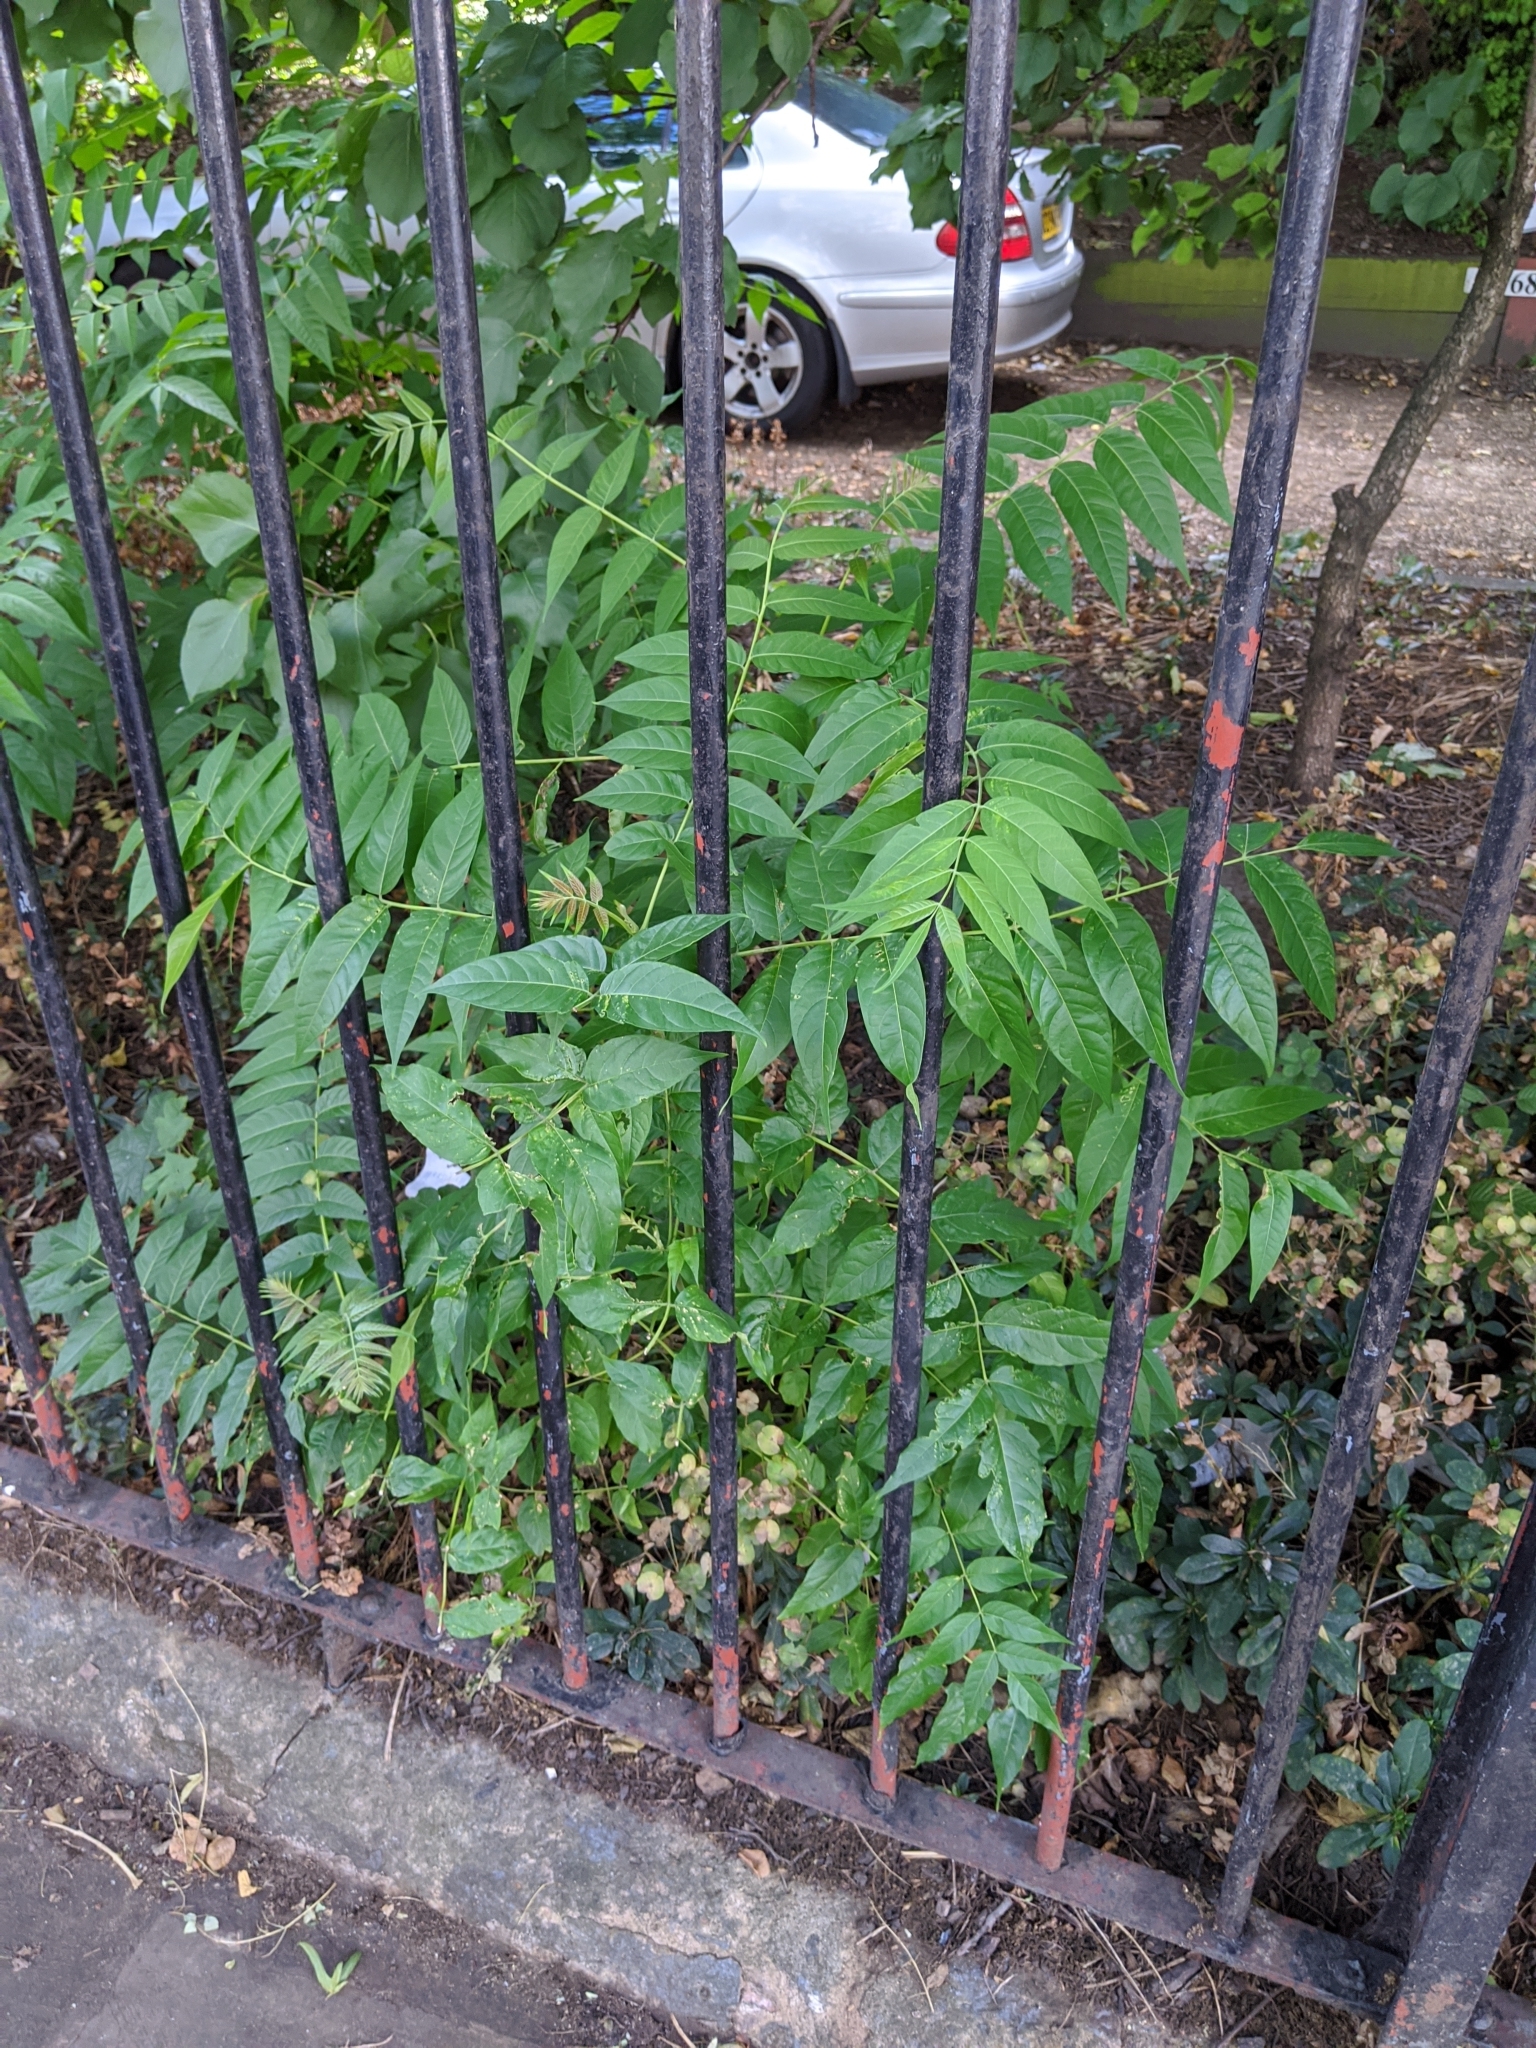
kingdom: Plantae
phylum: Tracheophyta
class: Magnoliopsida
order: Sapindales
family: Simaroubaceae
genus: Ailanthus
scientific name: Ailanthus altissima
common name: Tree-of-heaven
